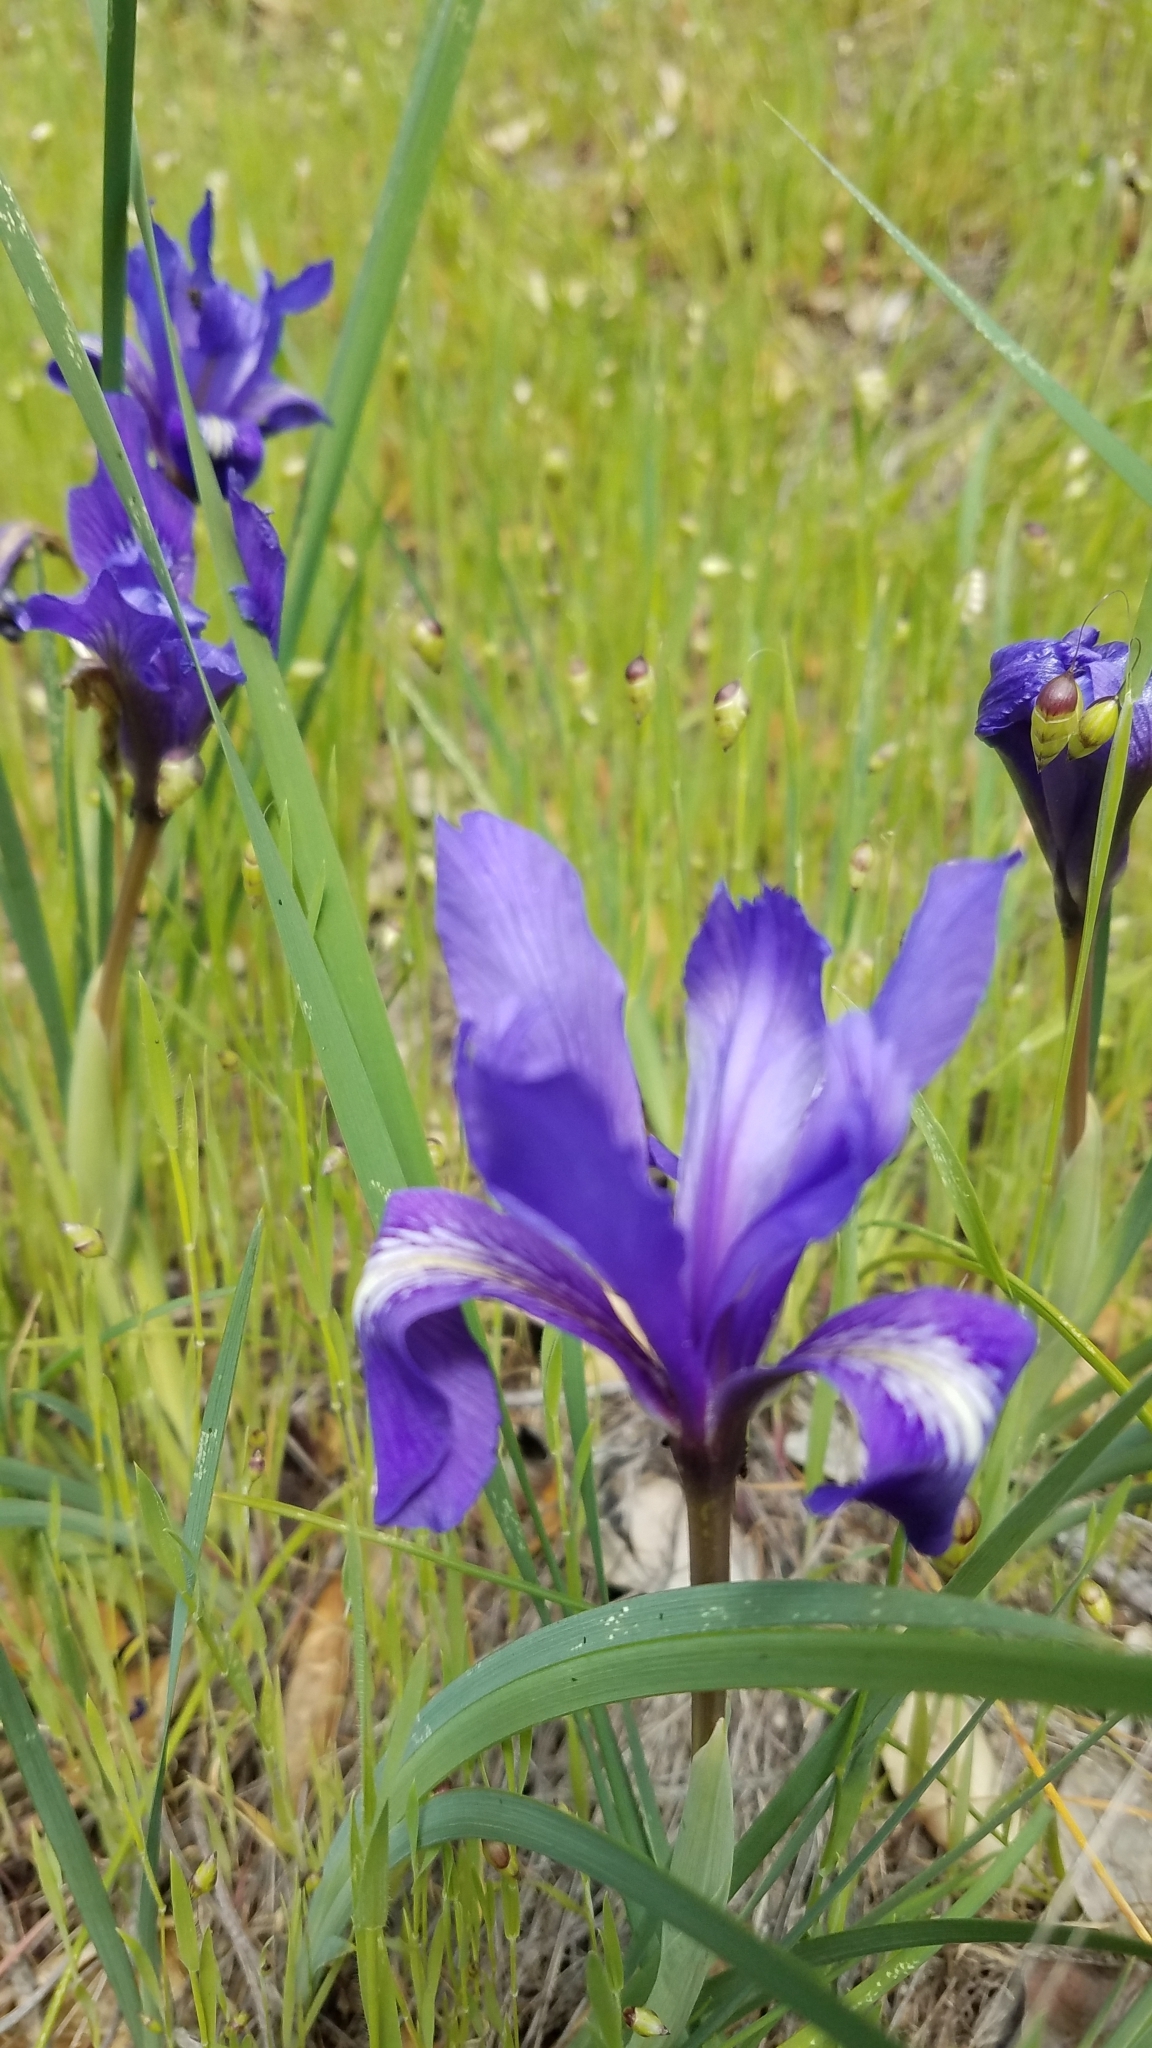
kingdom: Plantae
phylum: Tracheophyta
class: Liliopsida
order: Asparagales
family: Iridaceae
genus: Iris
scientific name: Iris macrosiphon
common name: Ground iris
